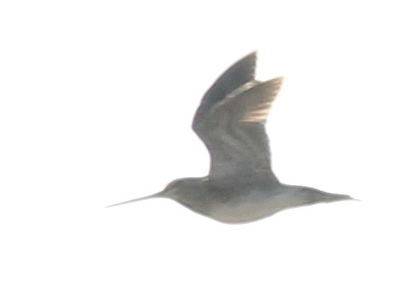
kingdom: Animalia
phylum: Chordata
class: Aves
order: Charadriiformes
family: Scolopacidae
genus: Gallinago
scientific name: Gallinago gallinago
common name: Common snipe
